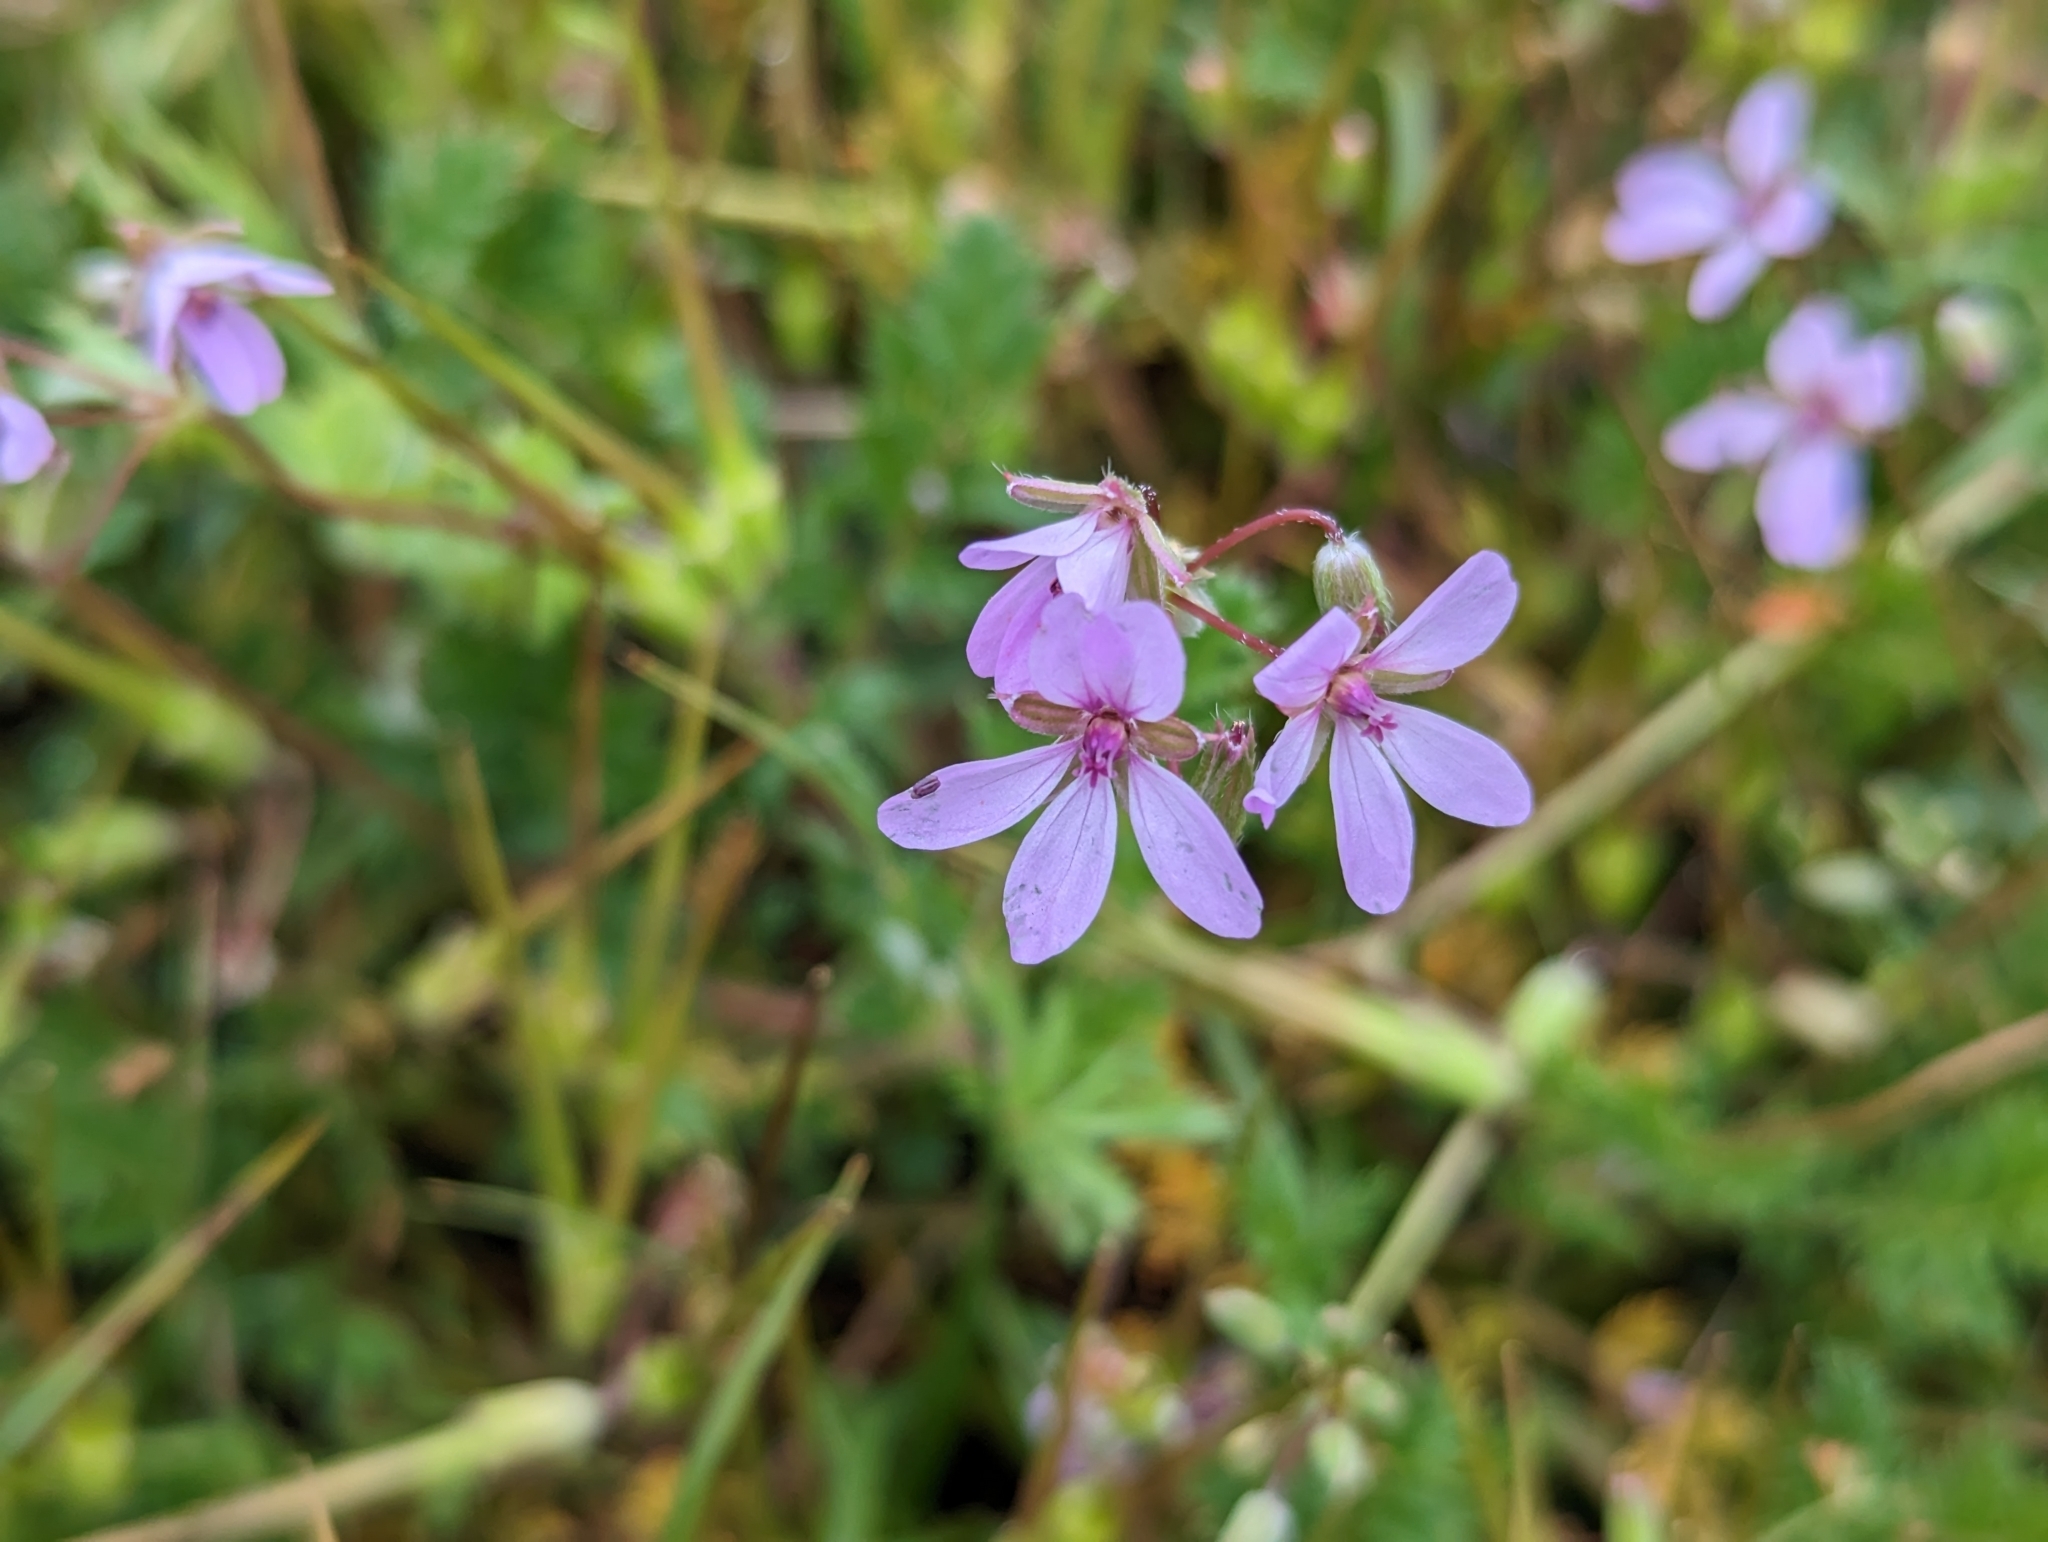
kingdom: Plantae
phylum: Tracheophyta
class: Magnoliopsida
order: Geraniales
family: Geraniaceae
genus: Erodium
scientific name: Erodium cicutarium
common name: Common stork's-bill
